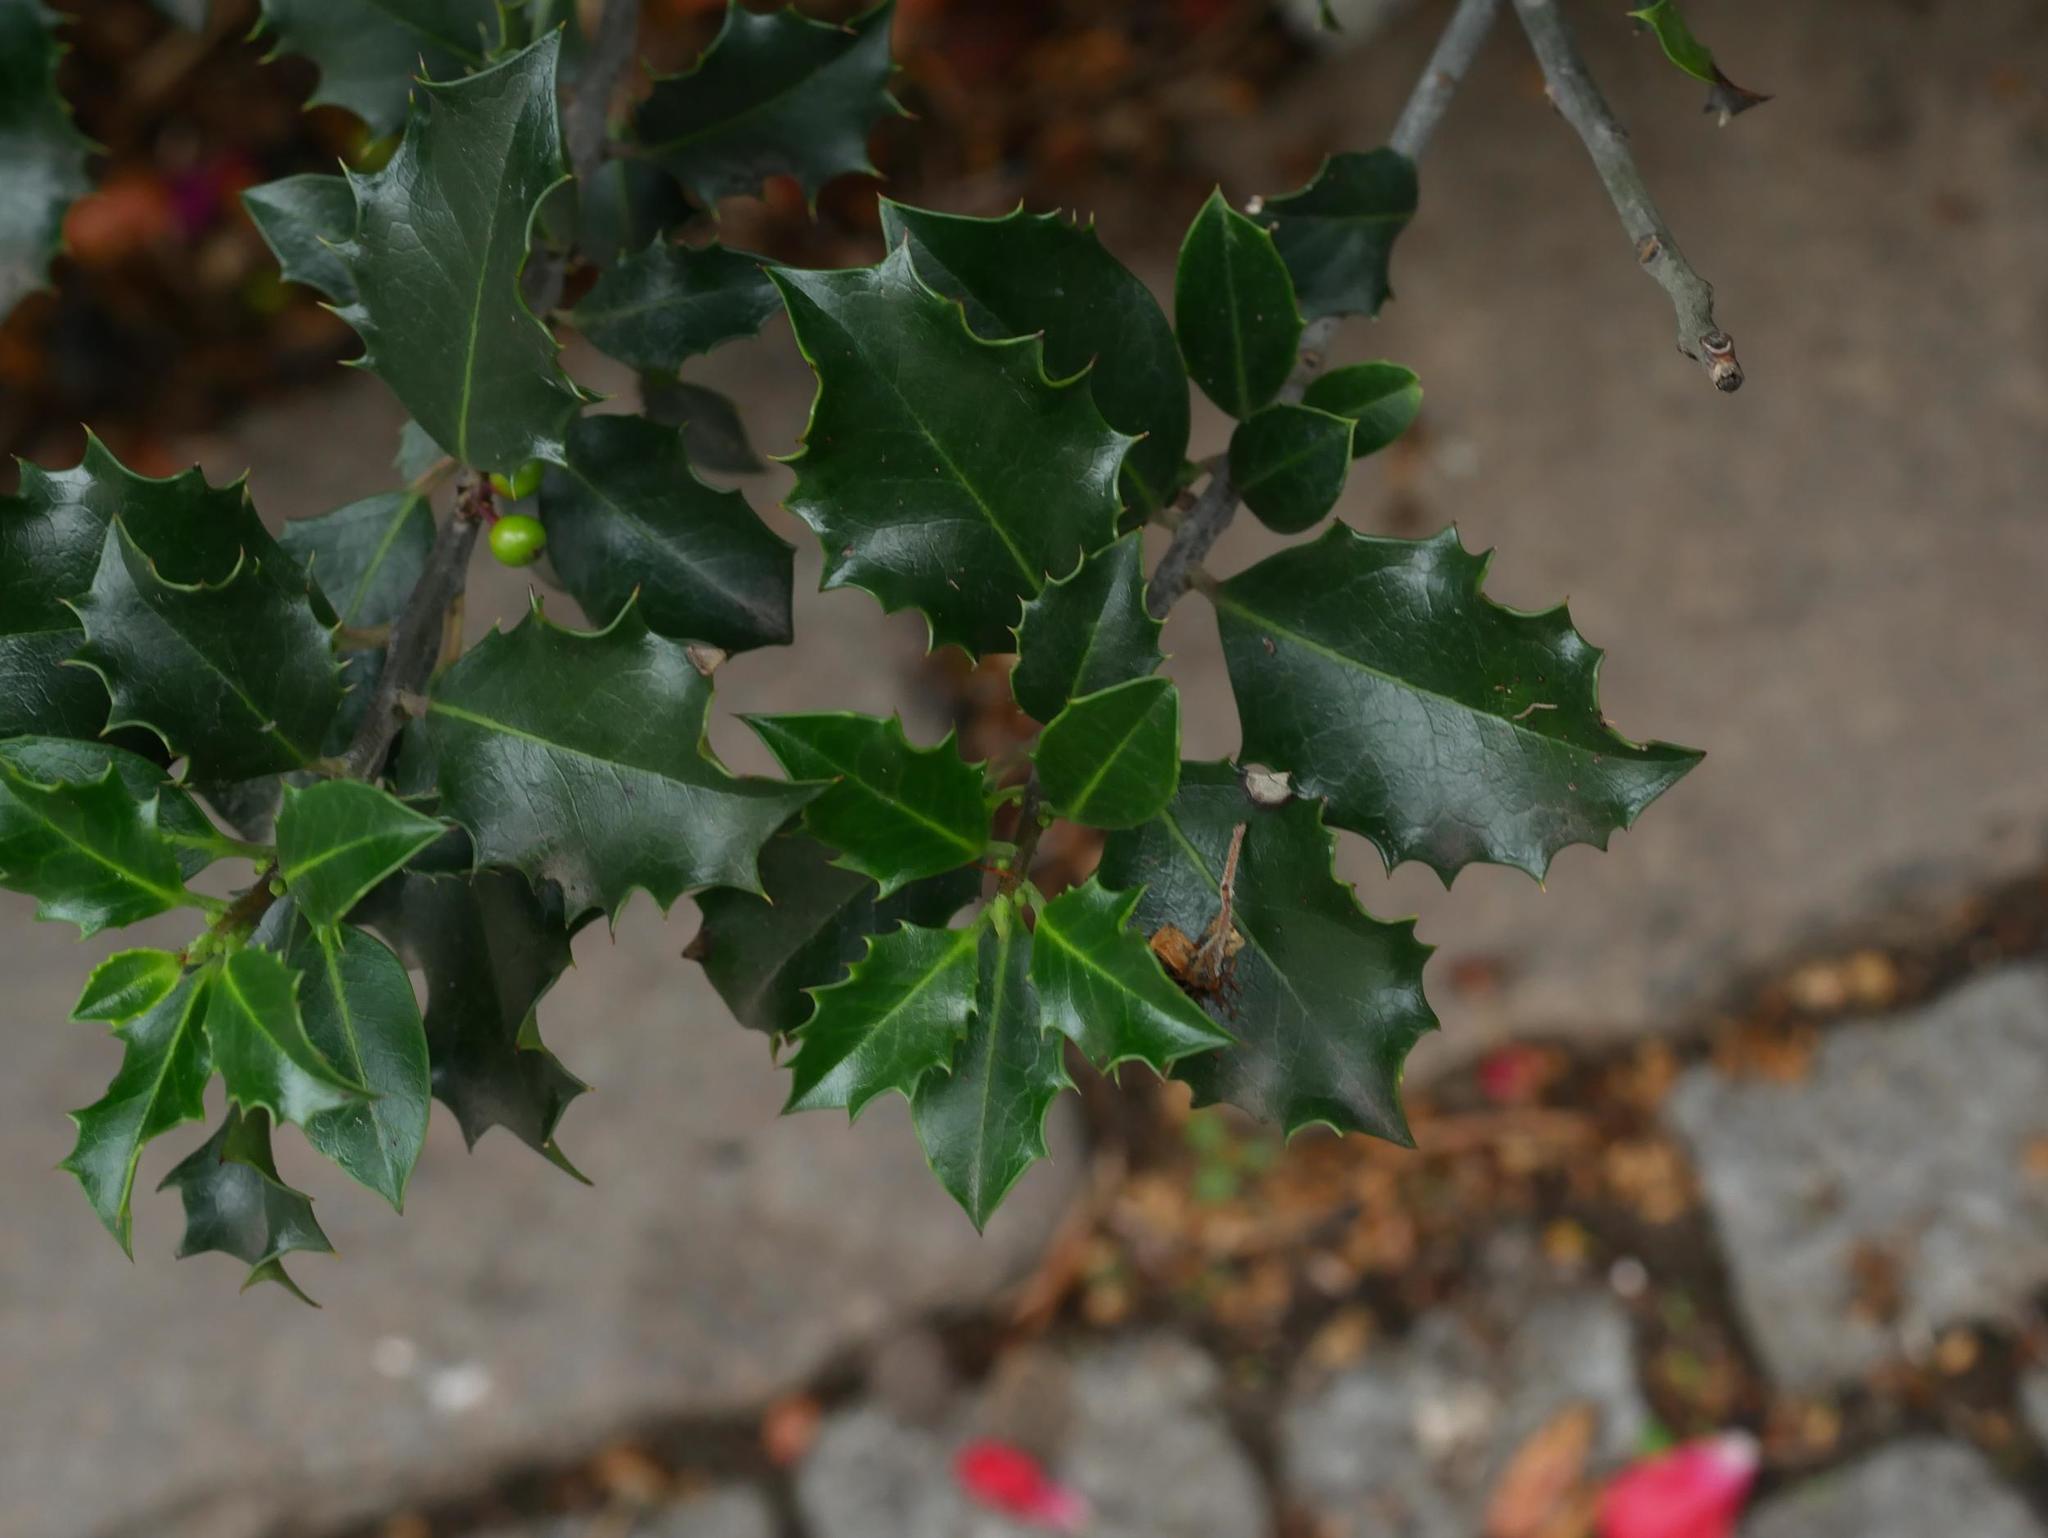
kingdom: Plantae
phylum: Tracheophyta
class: Magnoliopsida
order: Aquifoliales
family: Aquifoliaceae
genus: Ilex
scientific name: Ilex aquifolium
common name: English holly
